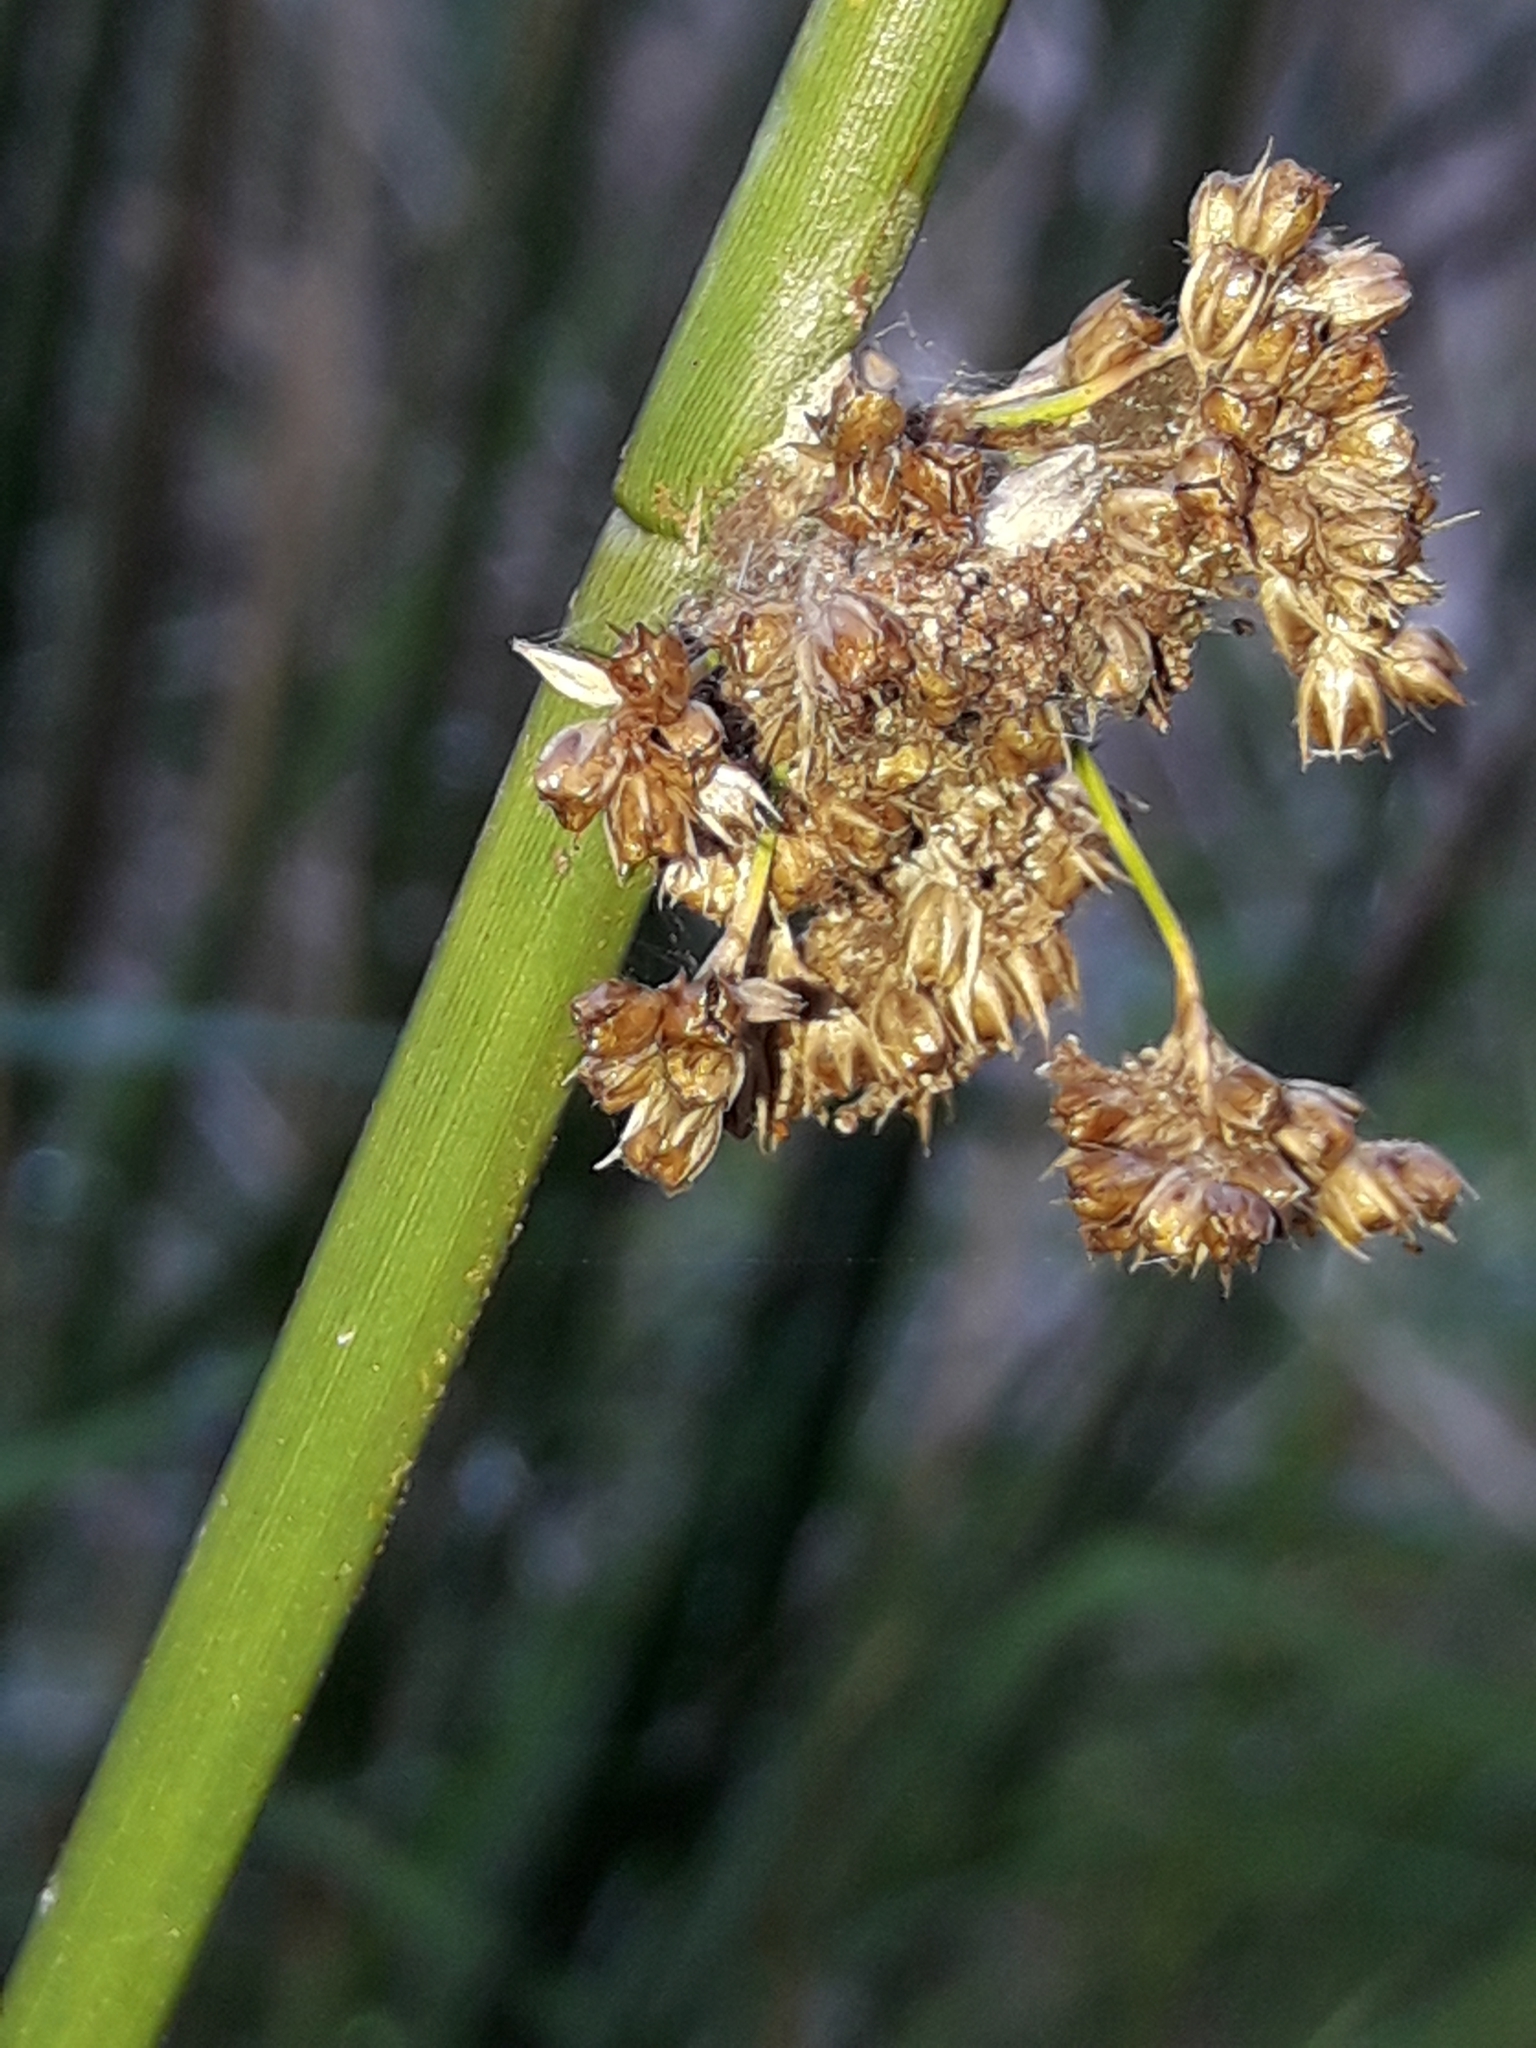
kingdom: Plantae
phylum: Tracheophyta
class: Liliopsida
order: Poales
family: Juncaceae
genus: Juncus
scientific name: Juncus effusus
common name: Soft rush
